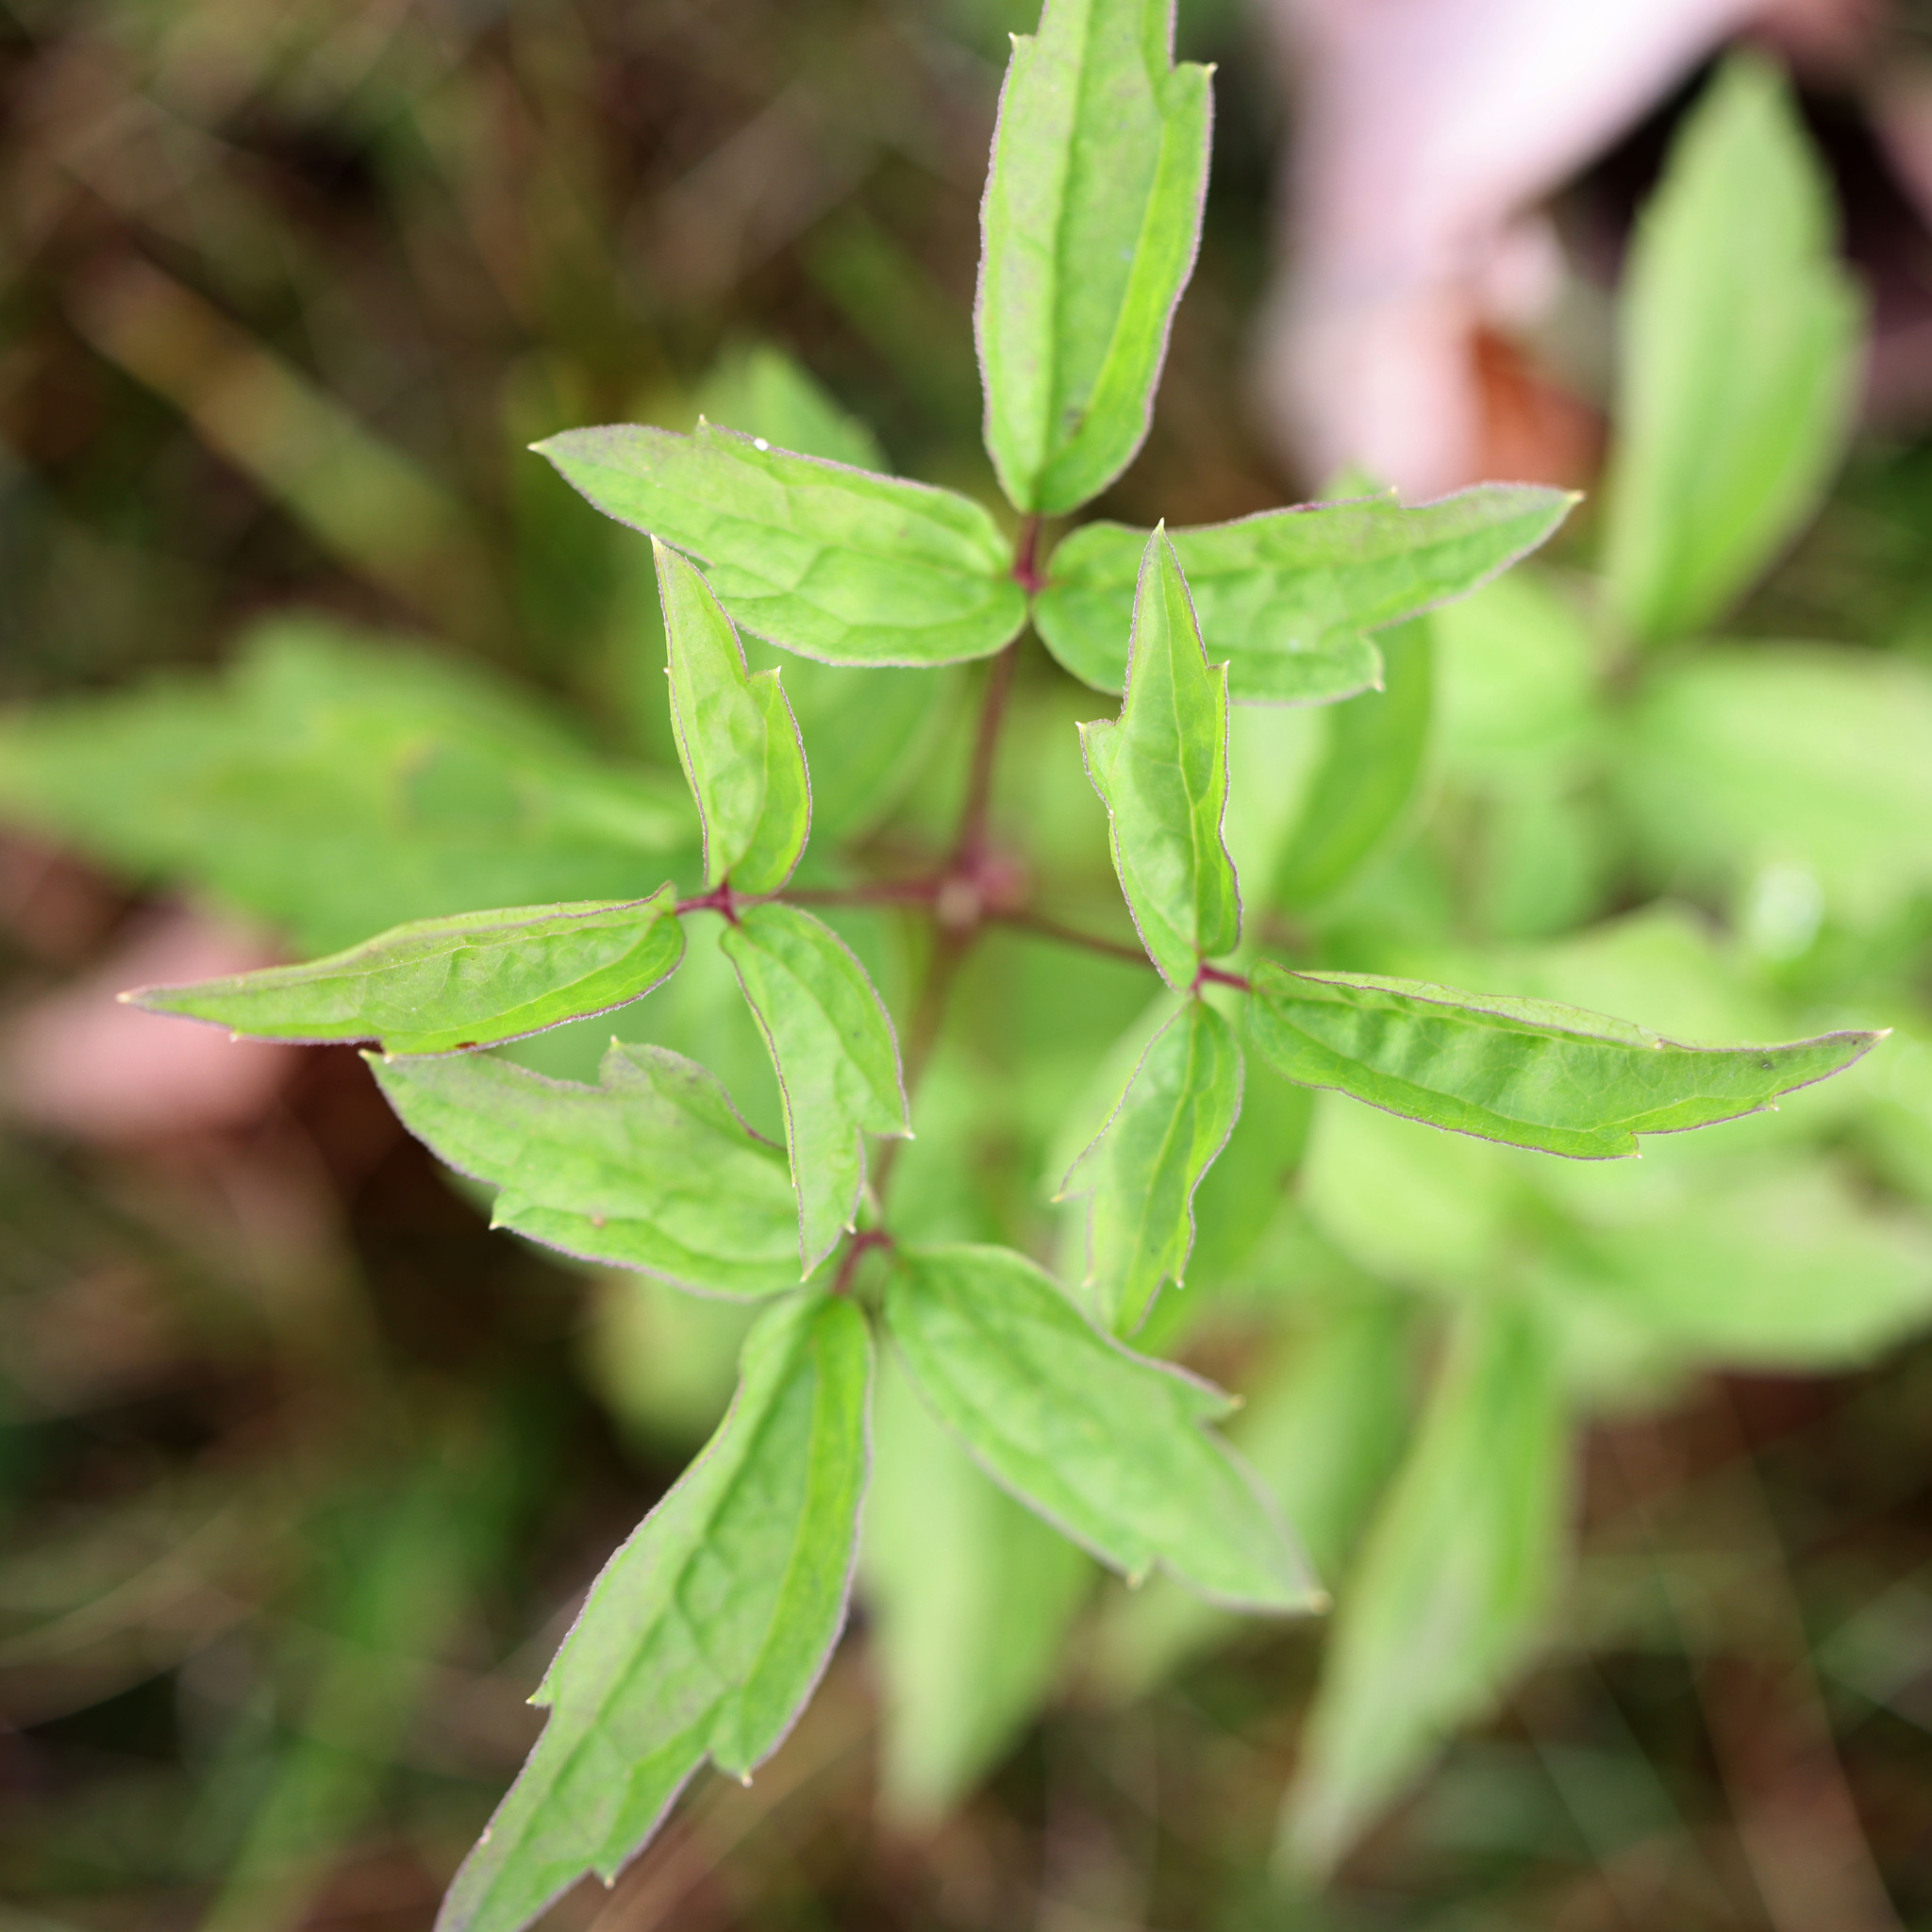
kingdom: Plantae
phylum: Tracheophyta
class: Magnoliopsida
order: Ranunculales
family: Ranunculaceae
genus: Clematis
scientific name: Clematis virginiana
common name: Virgin's-bower
